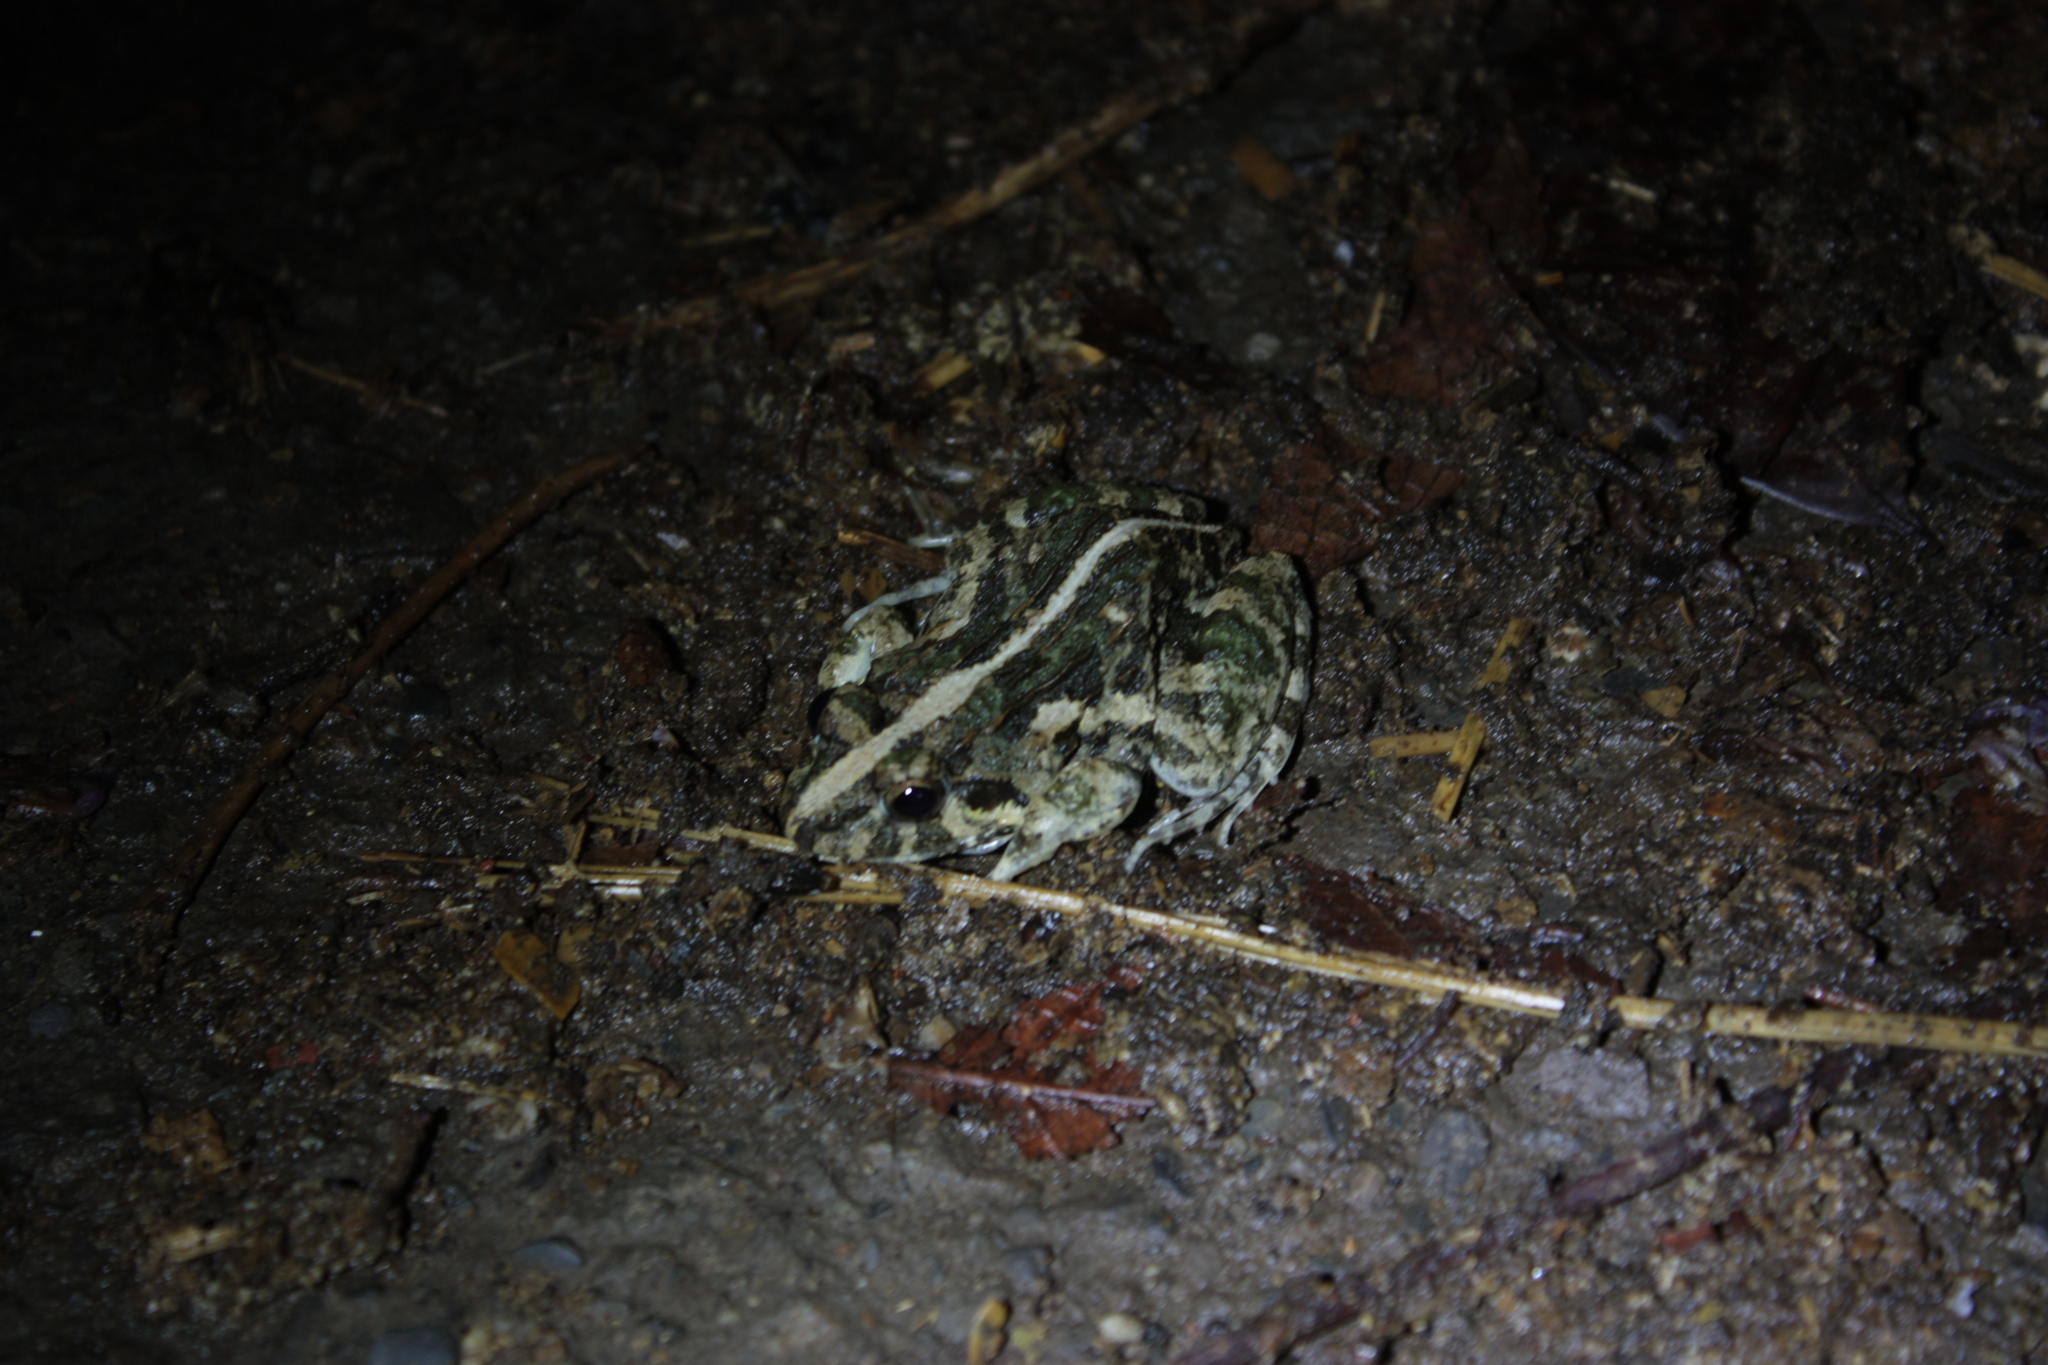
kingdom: Animalia
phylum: Chordata
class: Amphibia
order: Anura
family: Dicroglossidae
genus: Fejervarya
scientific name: Fejervarya limnocharis
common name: Asian grass frog/common pond frog/field frog/grass frog/indian rice frog
